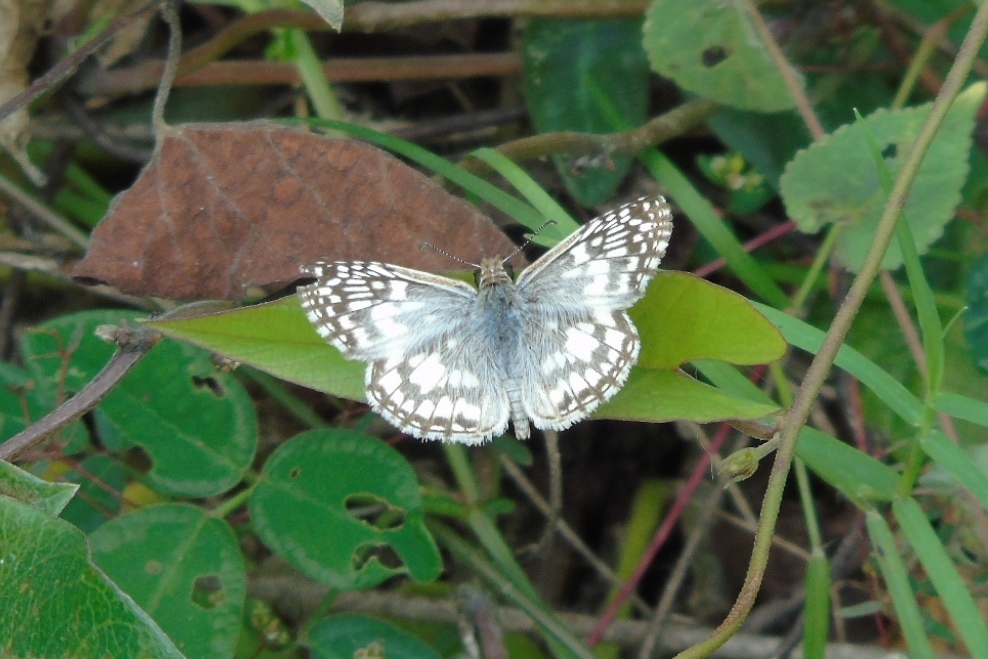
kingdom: Animalia
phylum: Arthropoda
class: Insecta
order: Lepidoptera
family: Hesperiidae
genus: Pyrgus
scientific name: Pyrgus oileus
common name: Tropical checkered-skipper
